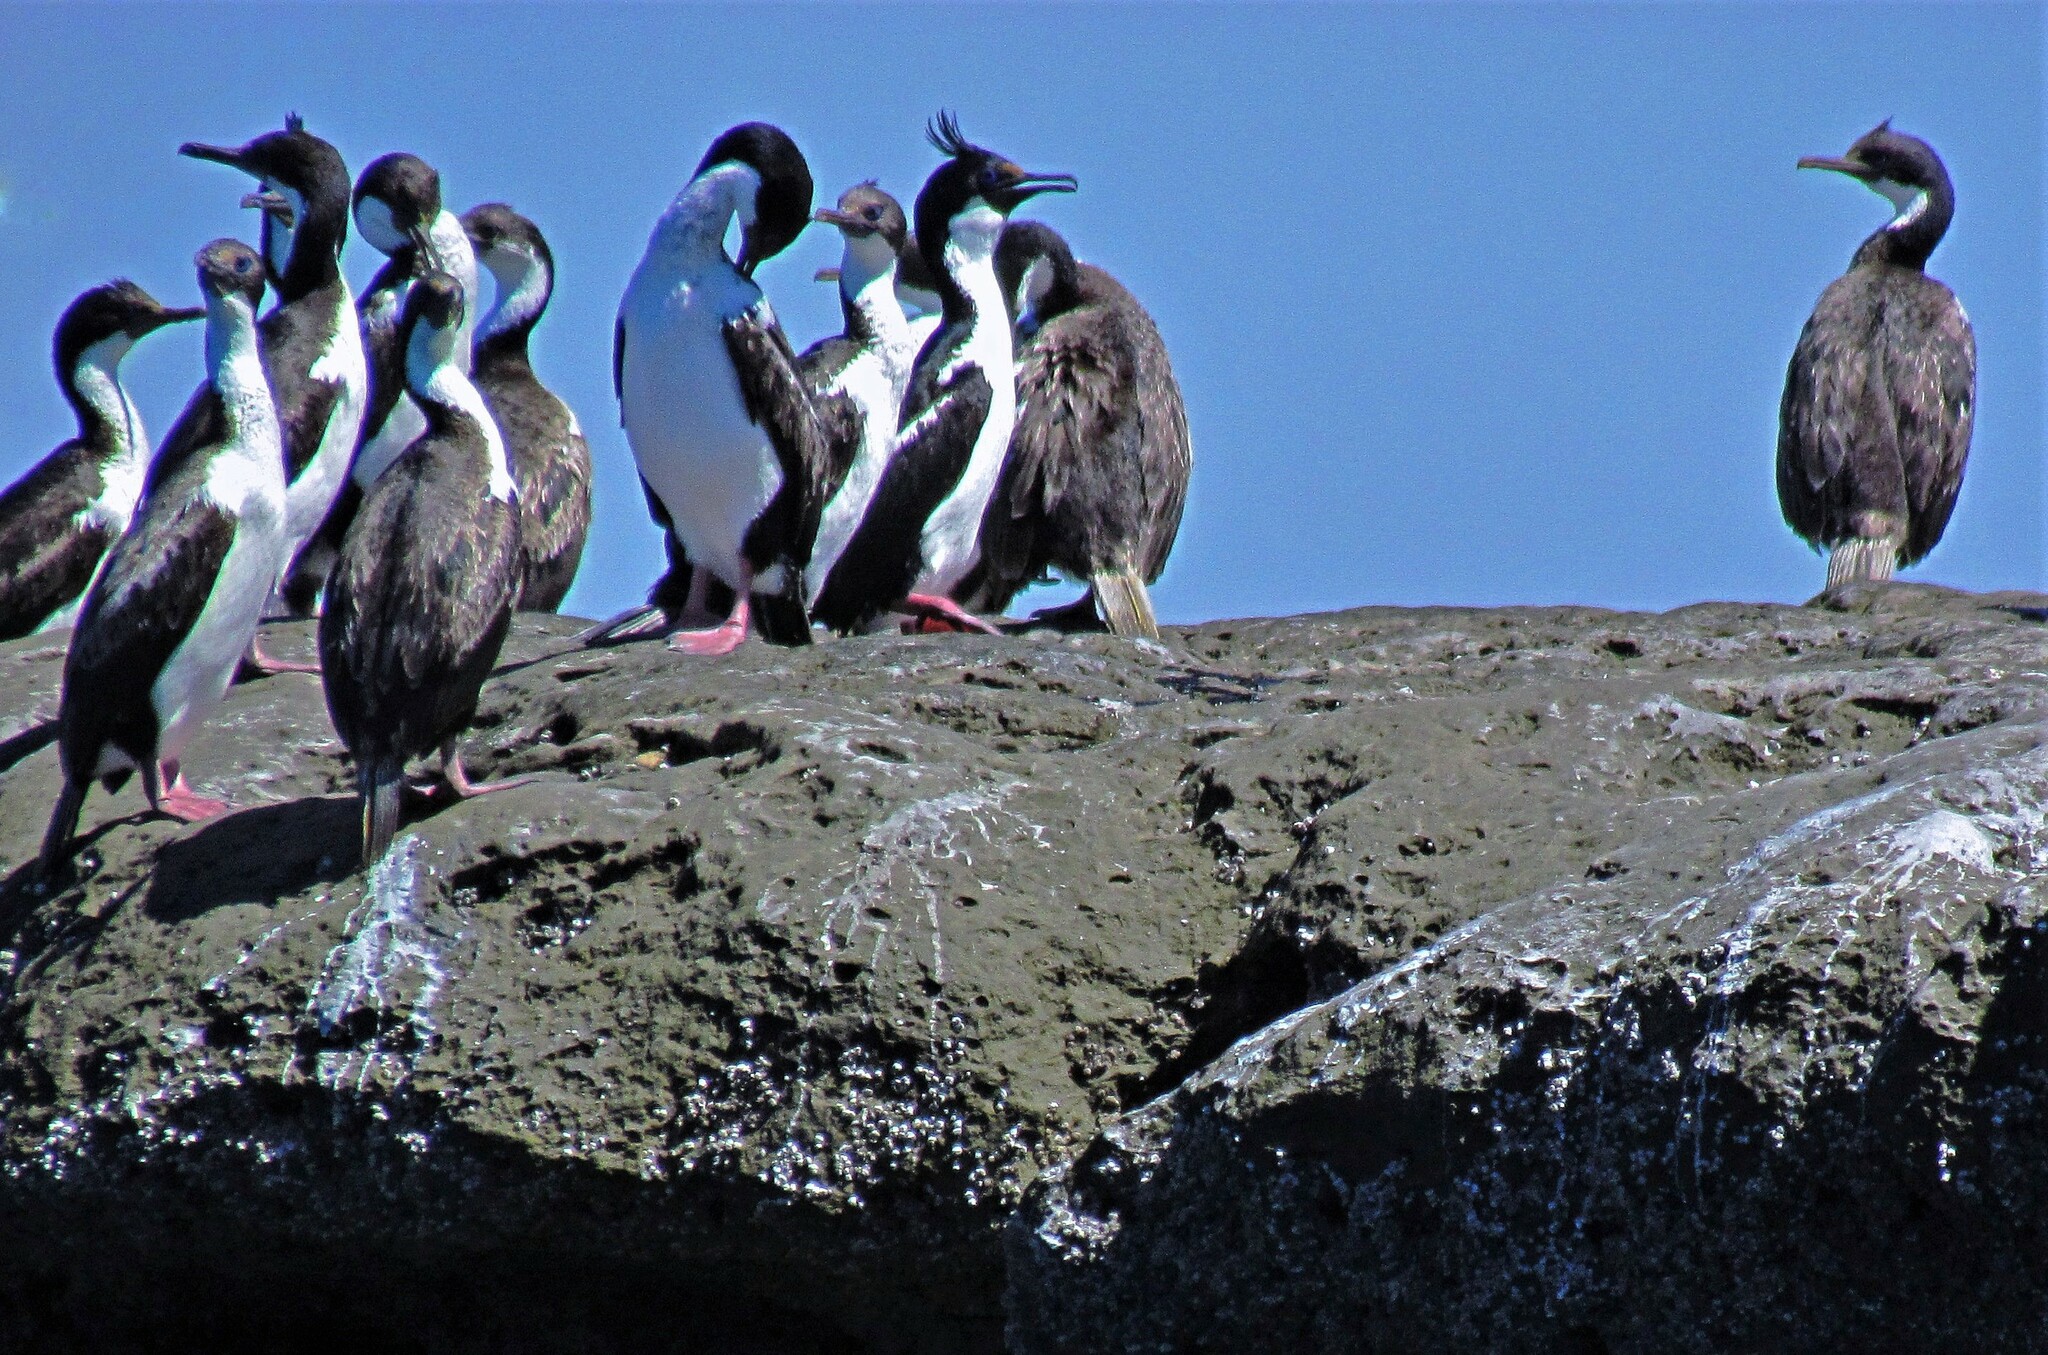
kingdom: Animalia
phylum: Chordata
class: Aves
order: Suliformes
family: Phalacrocoracidae
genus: Leucocarbo
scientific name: Leucocarbo atriceps
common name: Imperial shag
